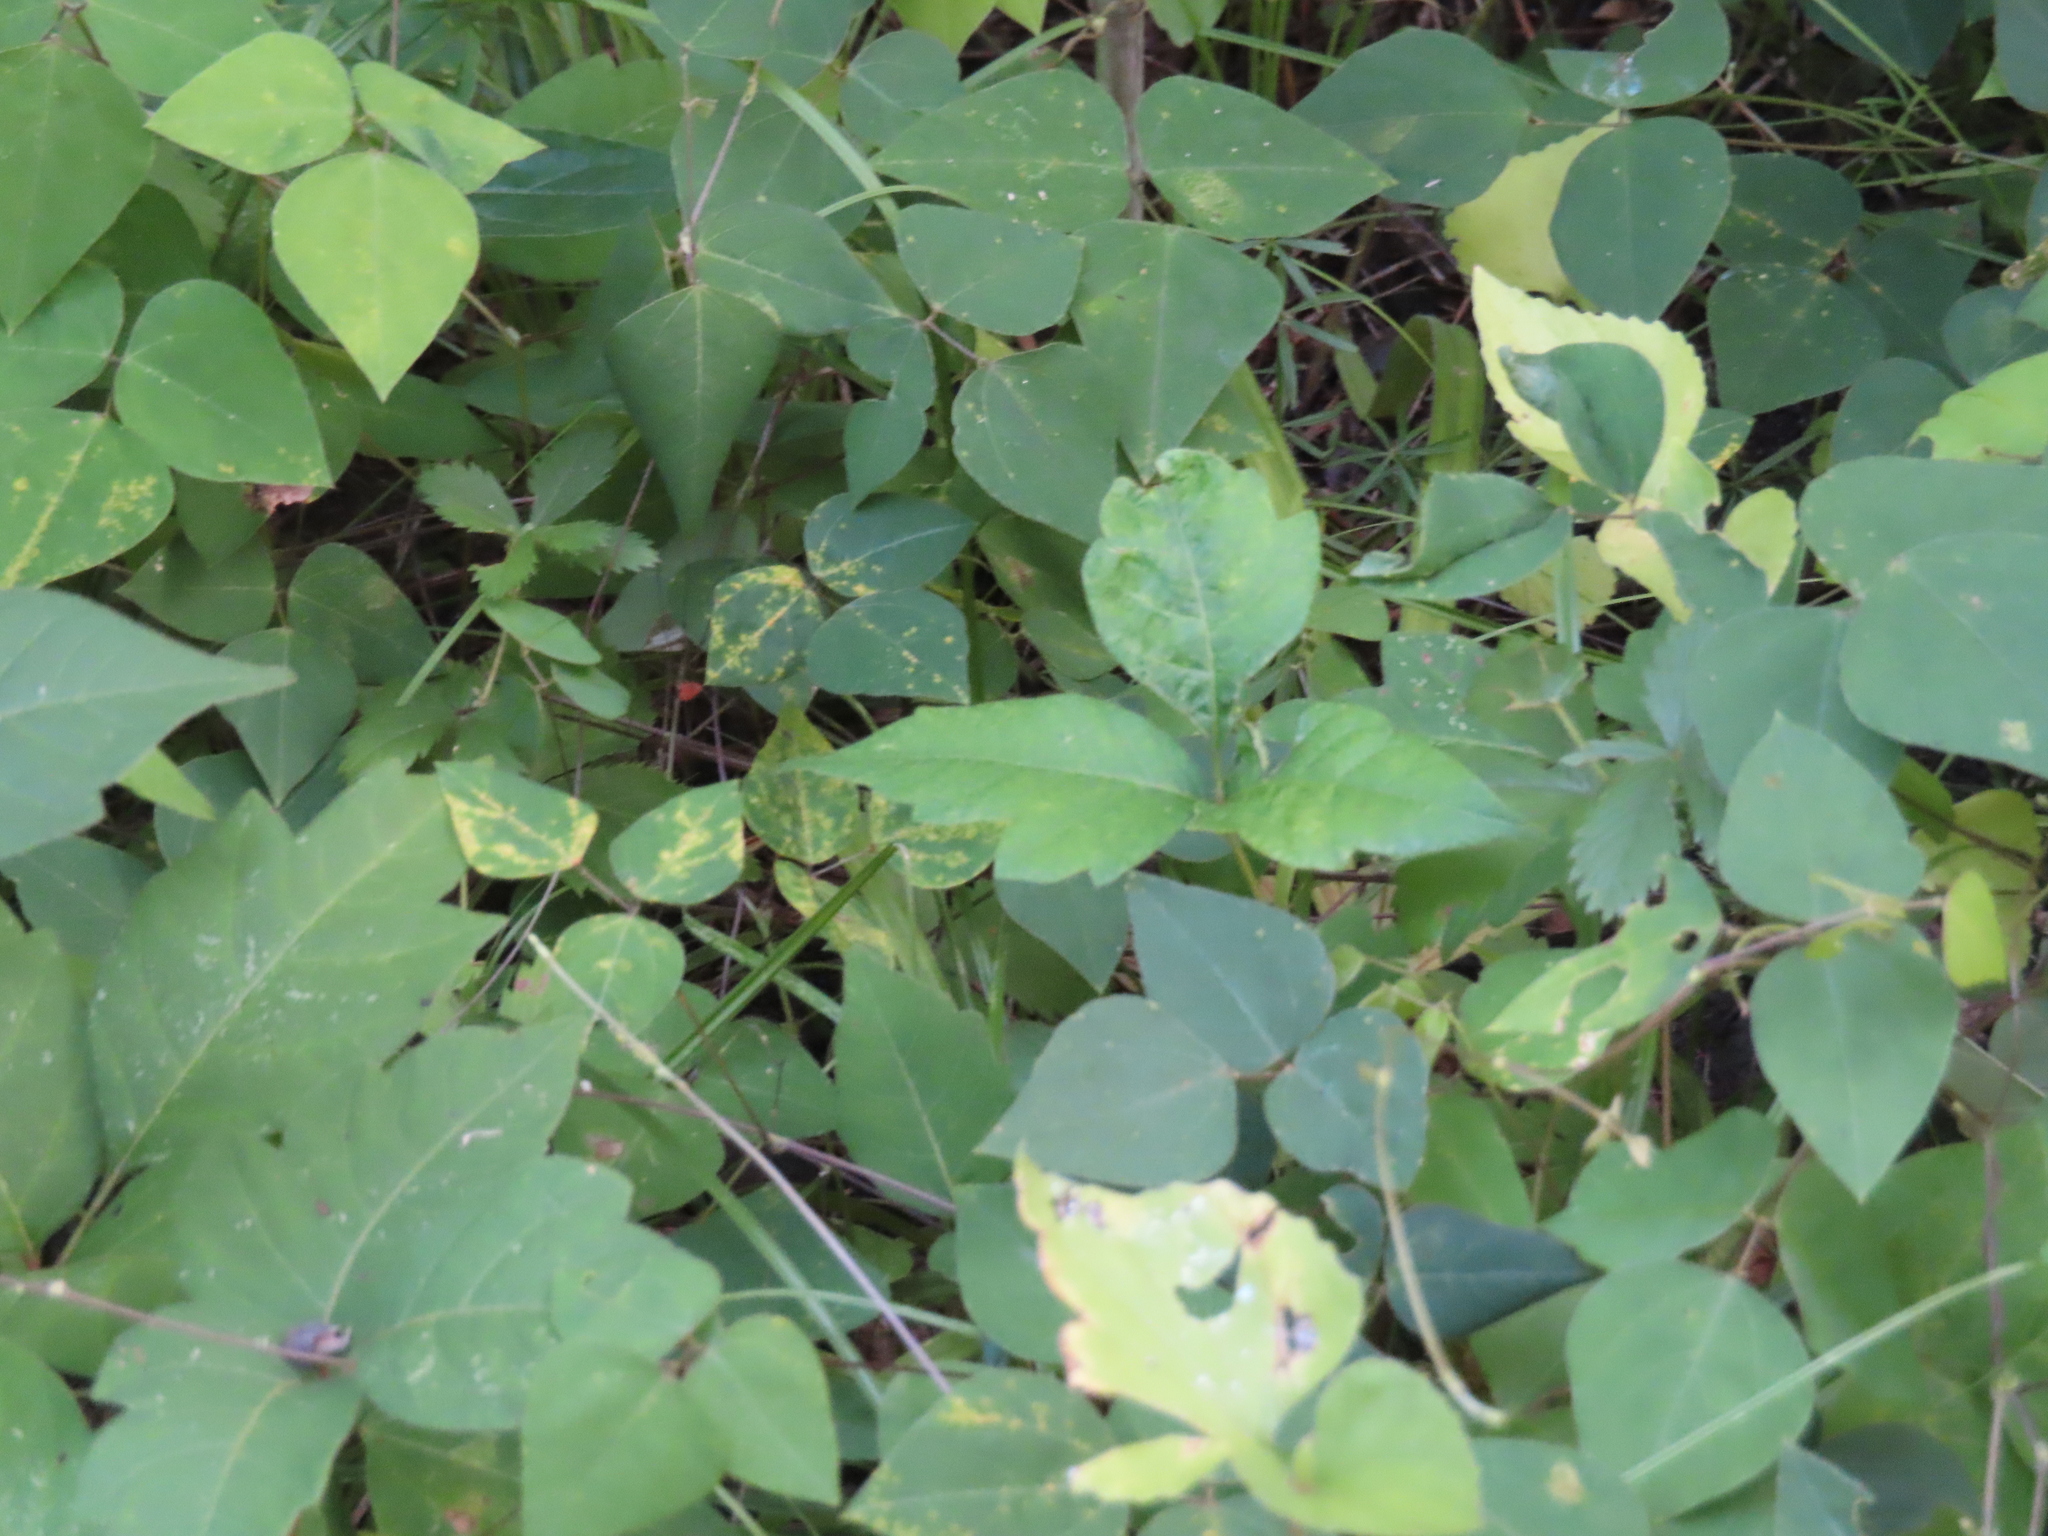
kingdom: Plantae
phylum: Tracheophyta
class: Magnoliopsida
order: Sapindales
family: Anacardiaceae
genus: Toxicodendron
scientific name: Toxicodendron radicans
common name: Poison ivy
